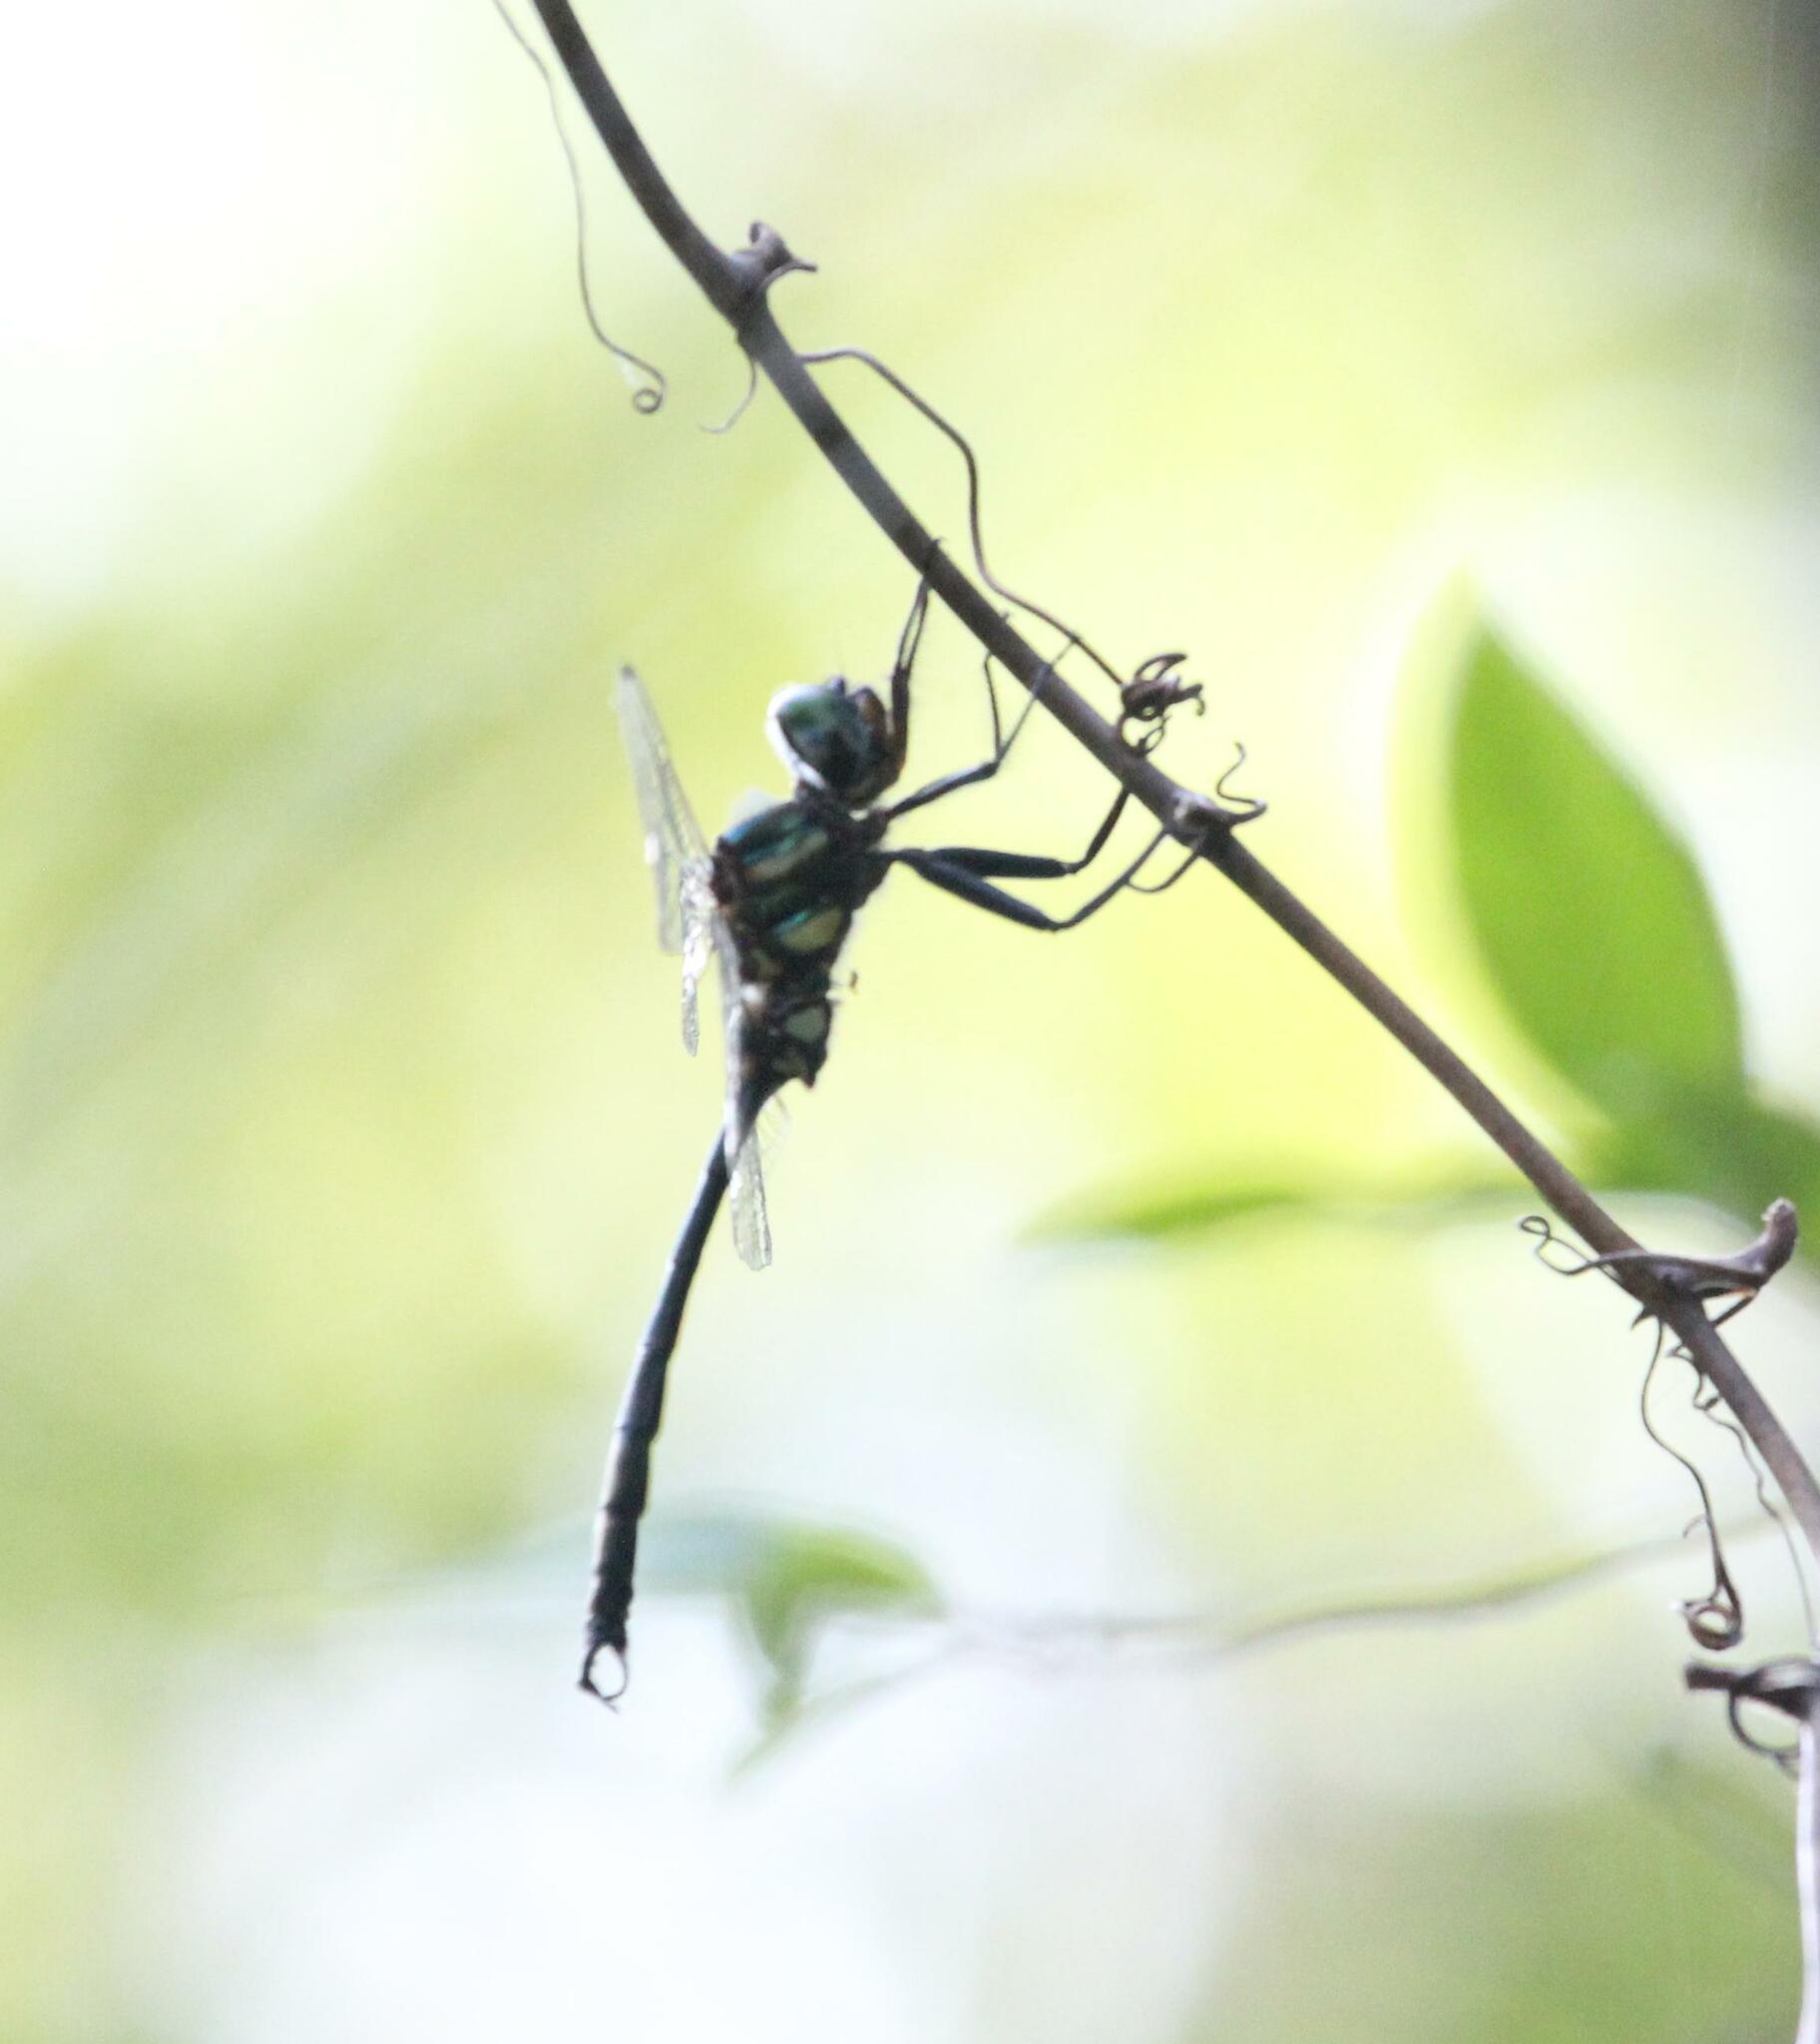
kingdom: Animalia
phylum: Arthropoda
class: Insecta
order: Odonata
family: Corduliidae
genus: Somatochlora
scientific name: Somatochlora tenebrosa
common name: Clamp-tipped emerald
